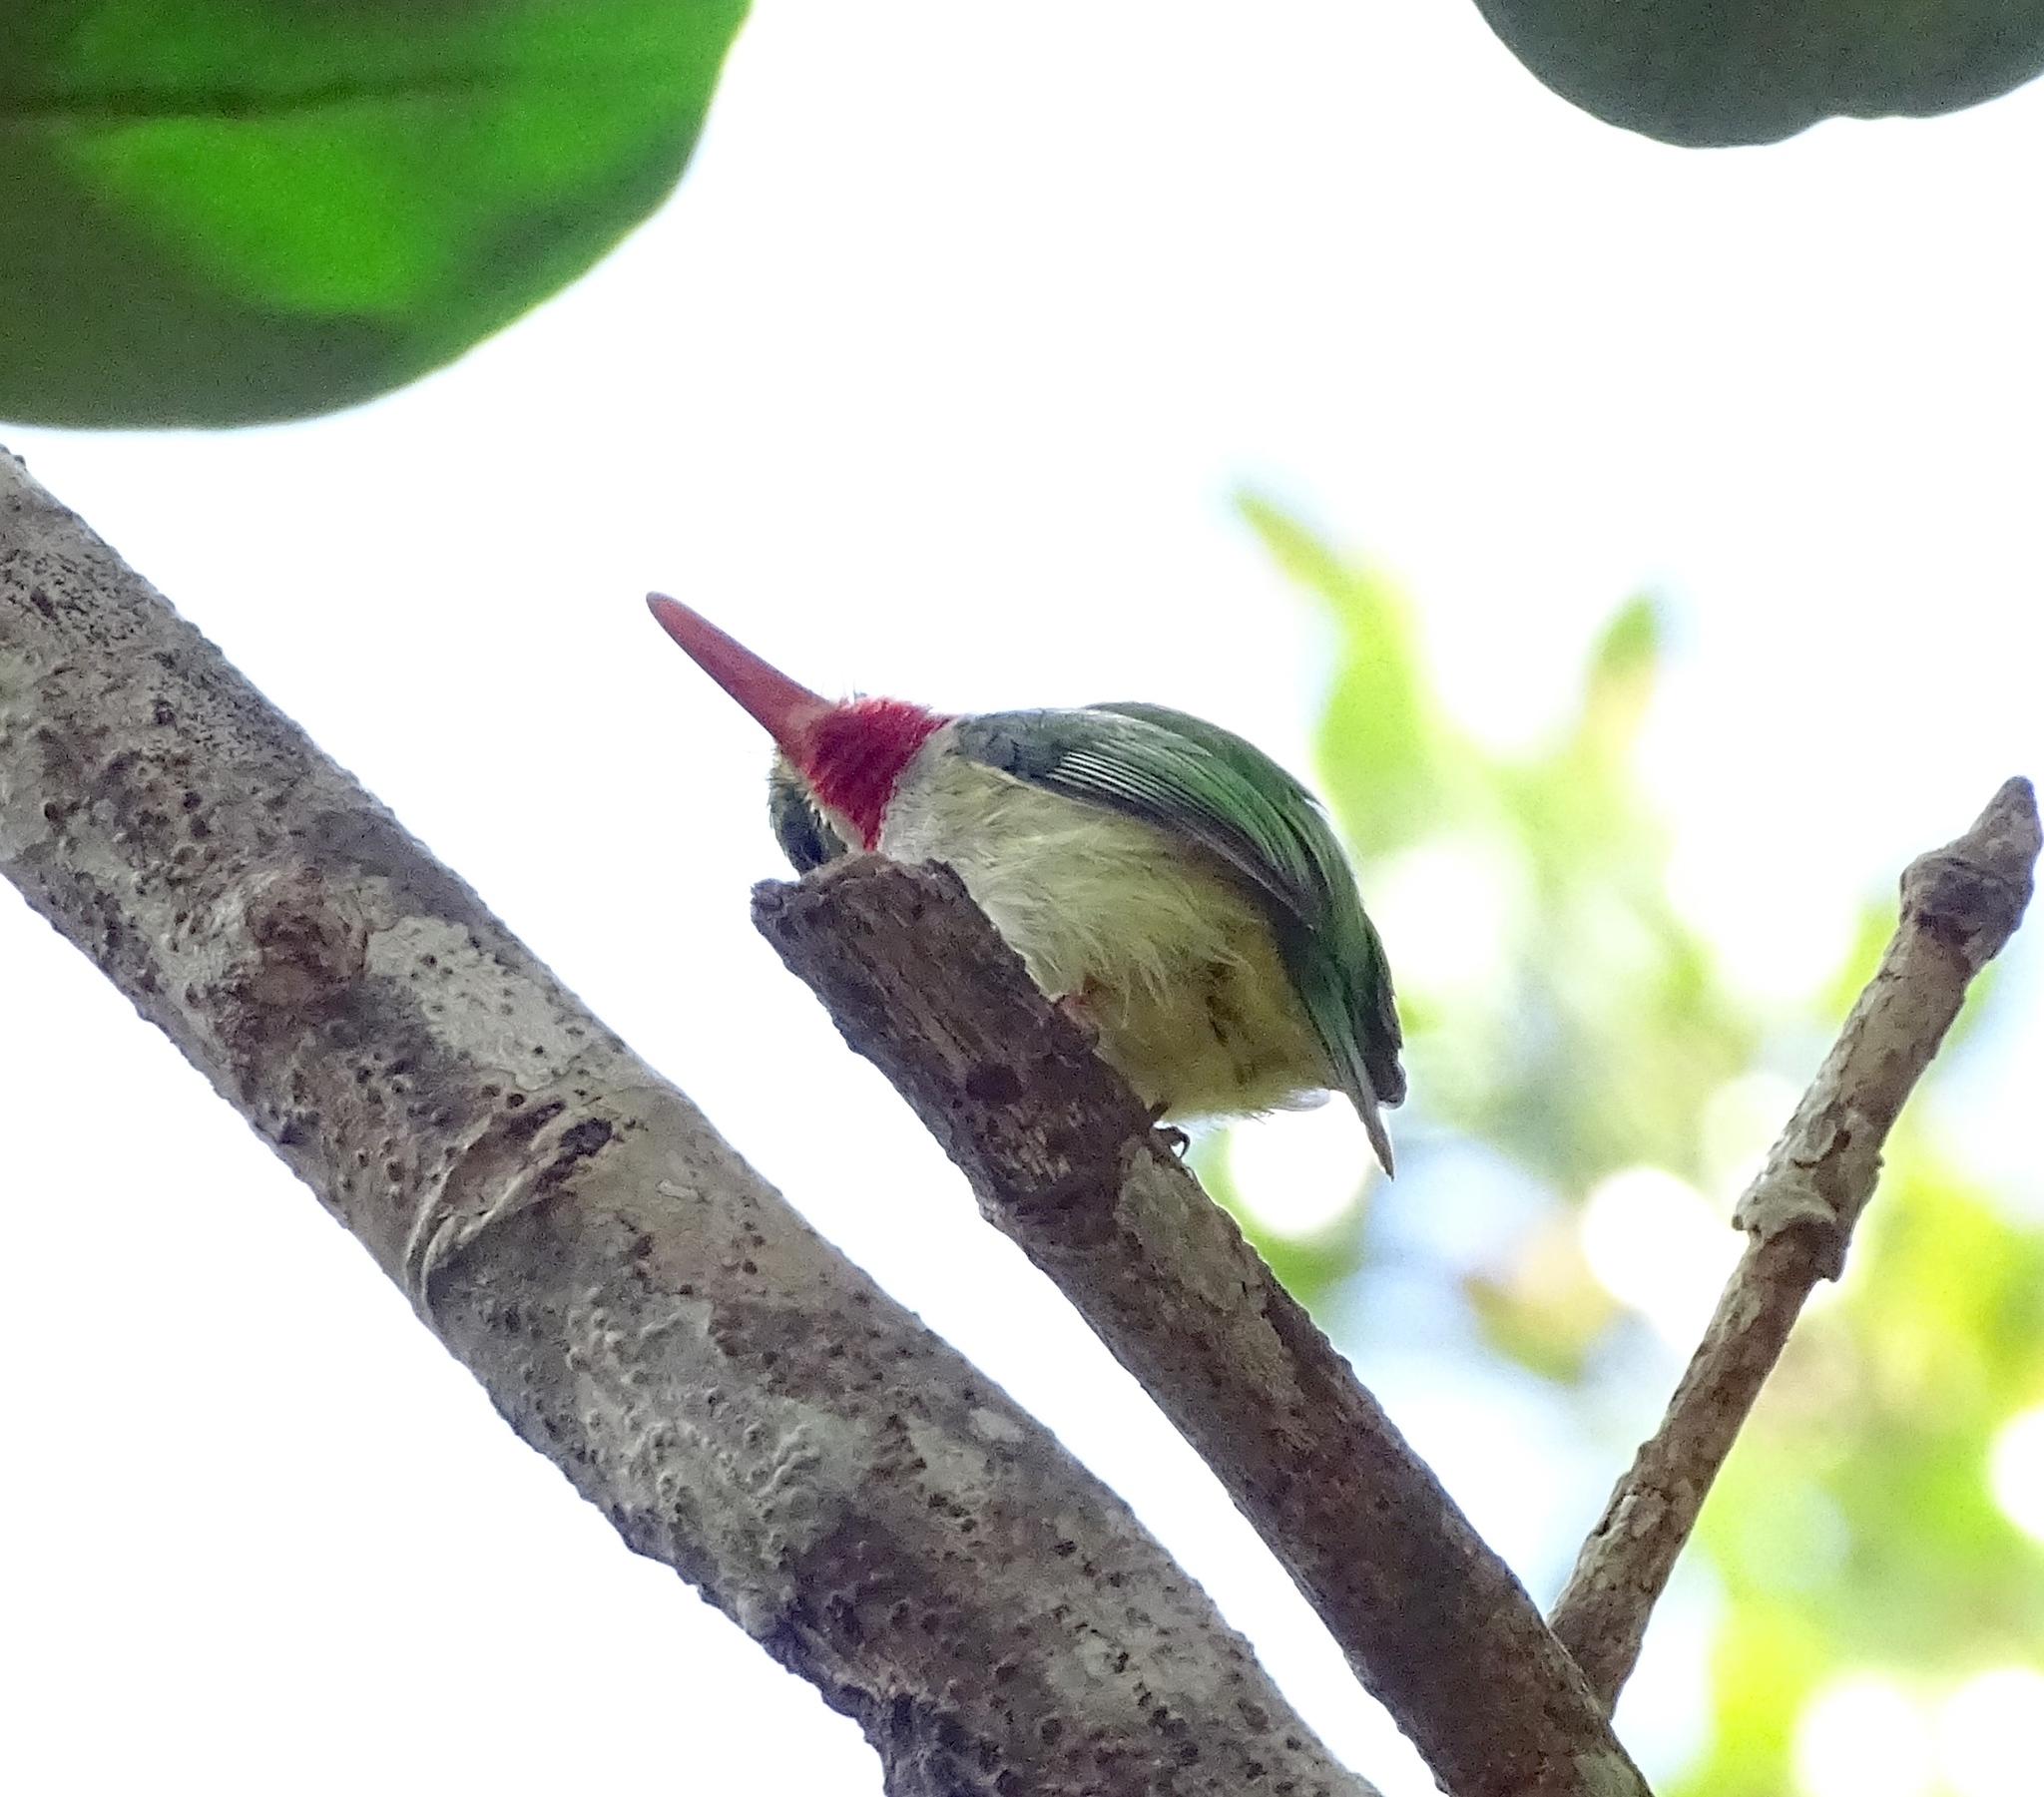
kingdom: Animalia
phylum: Chordata
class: Aves
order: Coraciiformes
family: Todidae
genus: Todus
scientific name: Todus mexicanus
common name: Puerto rican tody
